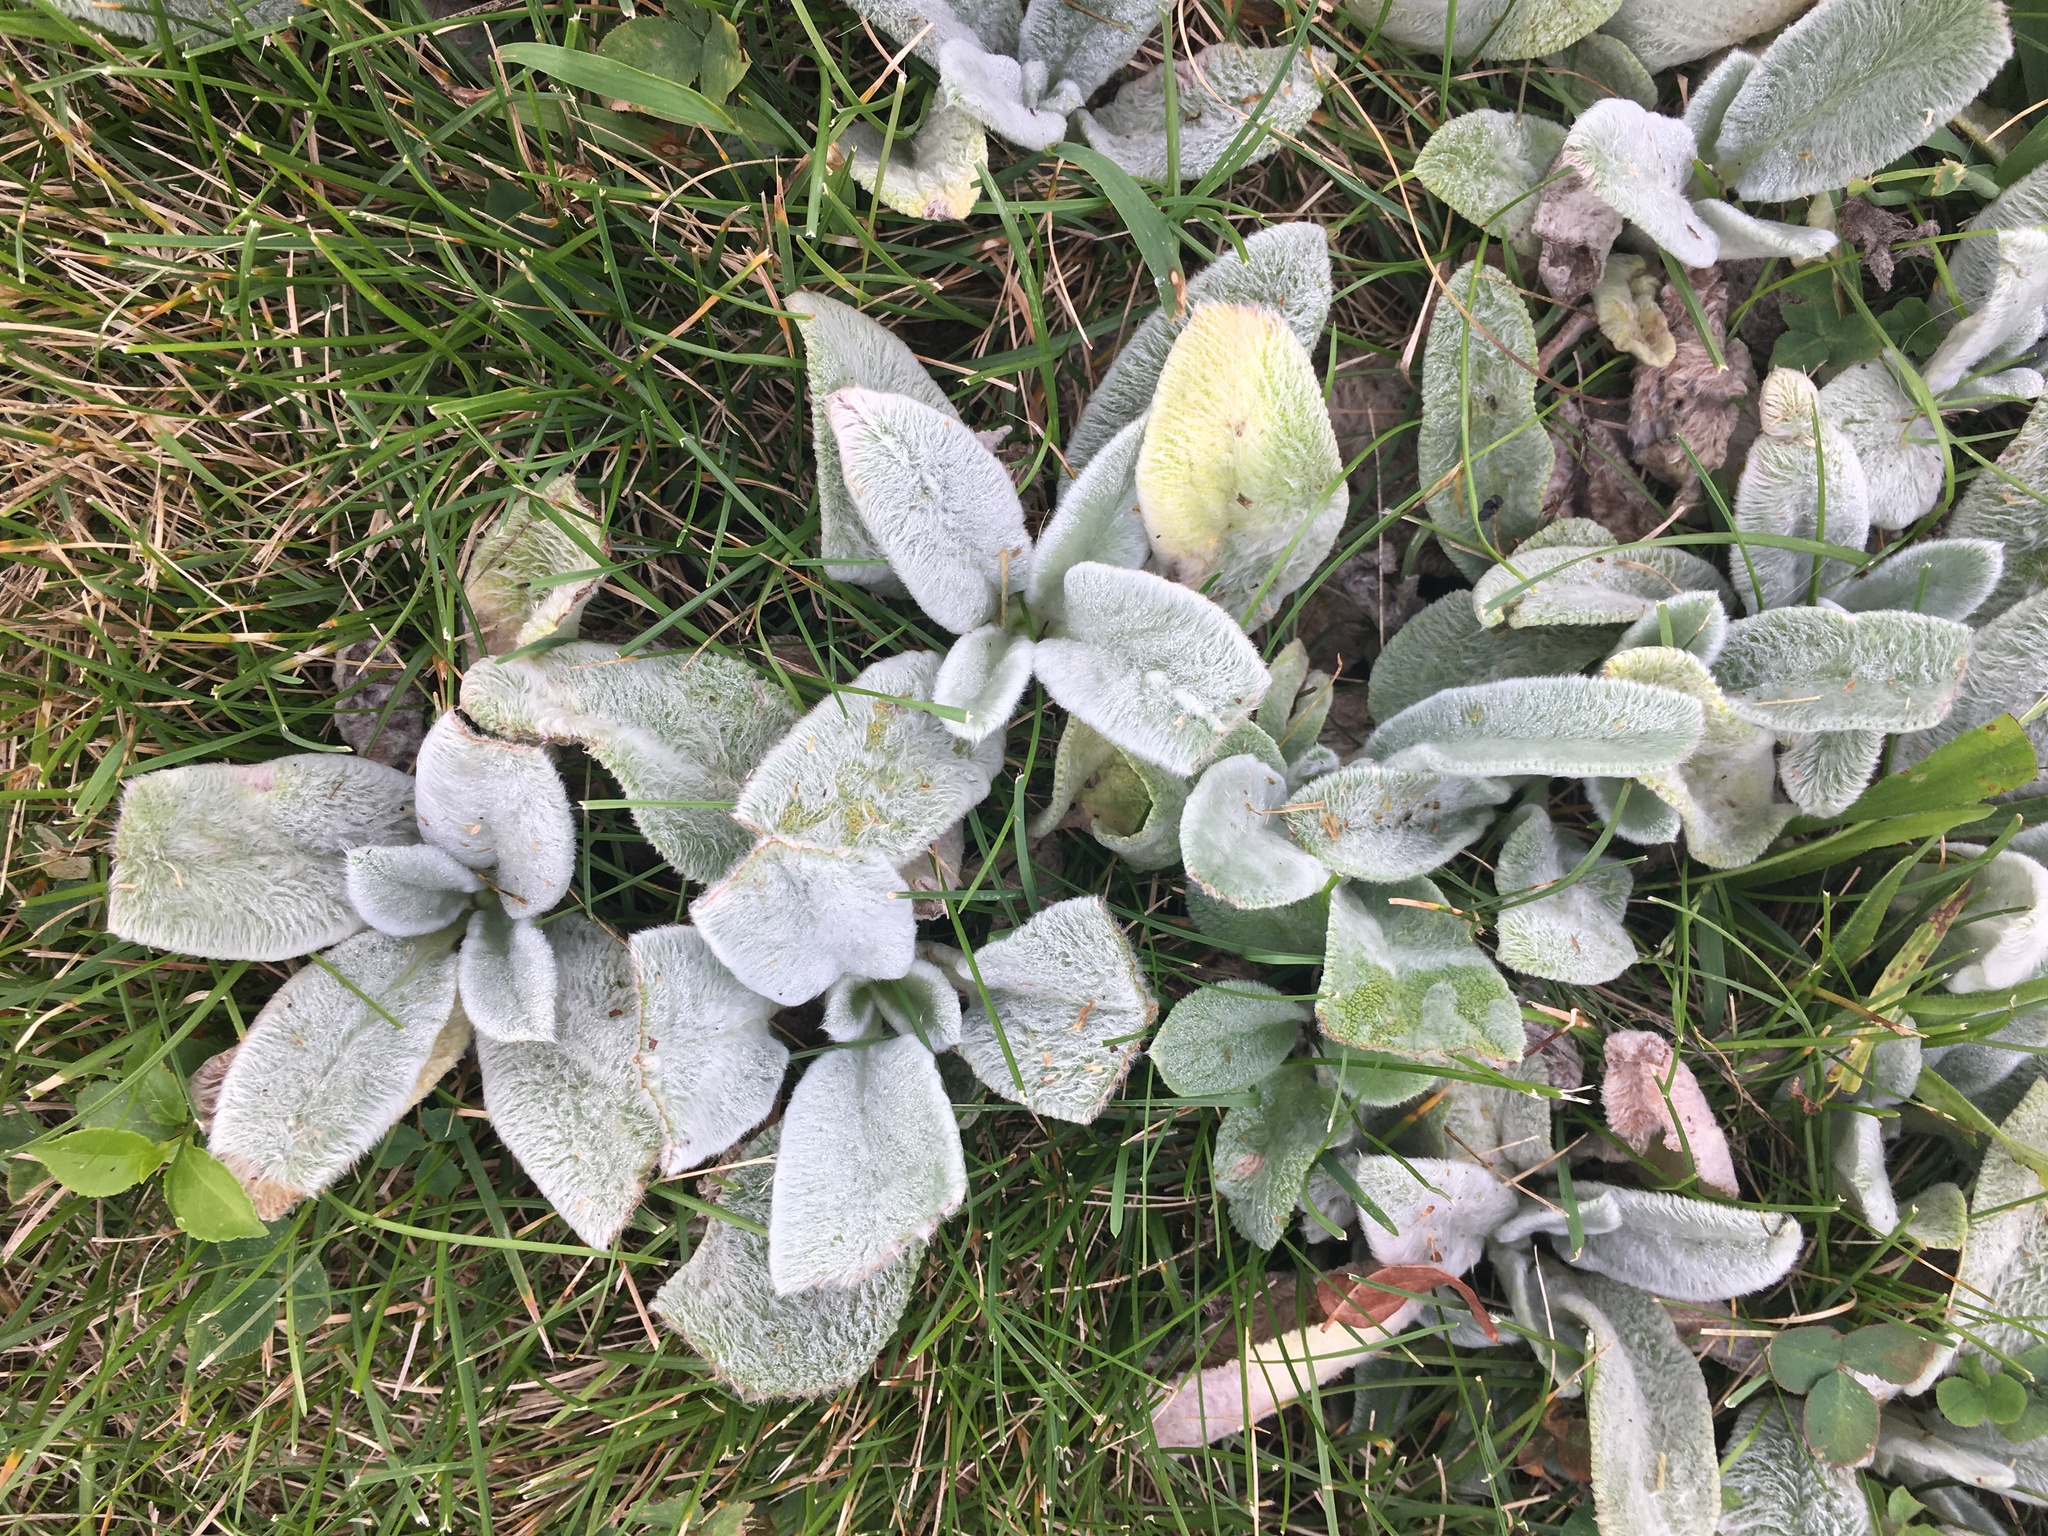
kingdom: Plantae
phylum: Tracheophyta
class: Magnoliopsida
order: Lamiales
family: Lamiaceae
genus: Stachys
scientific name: Stachys byzantina
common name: Lamb's-ear
